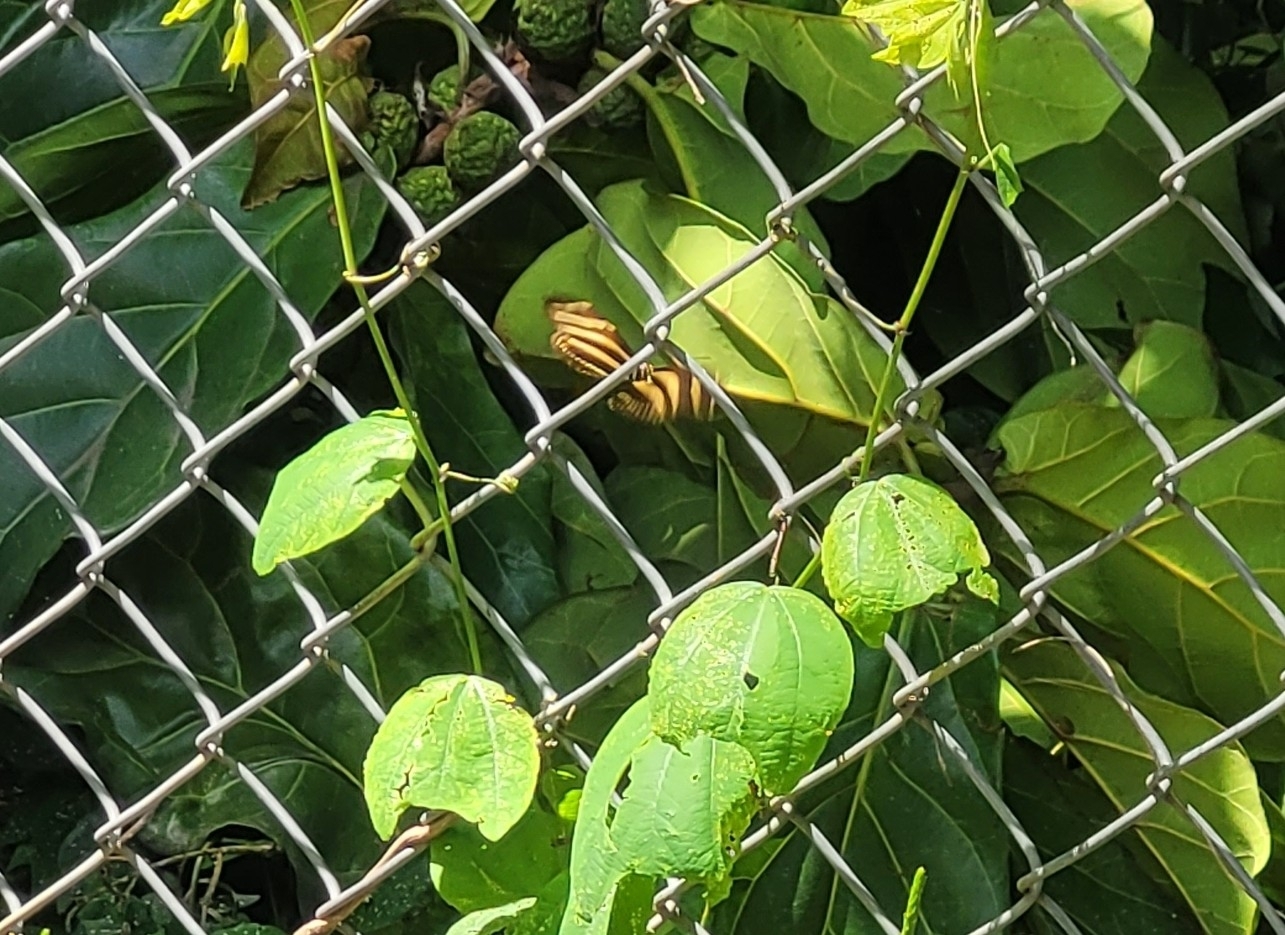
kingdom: Animalia
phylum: Arthropoda
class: Insecta
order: Lepidoptera
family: Nymphalidae
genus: Heliconius
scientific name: Heliconius charithonia
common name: Zebra long wing
